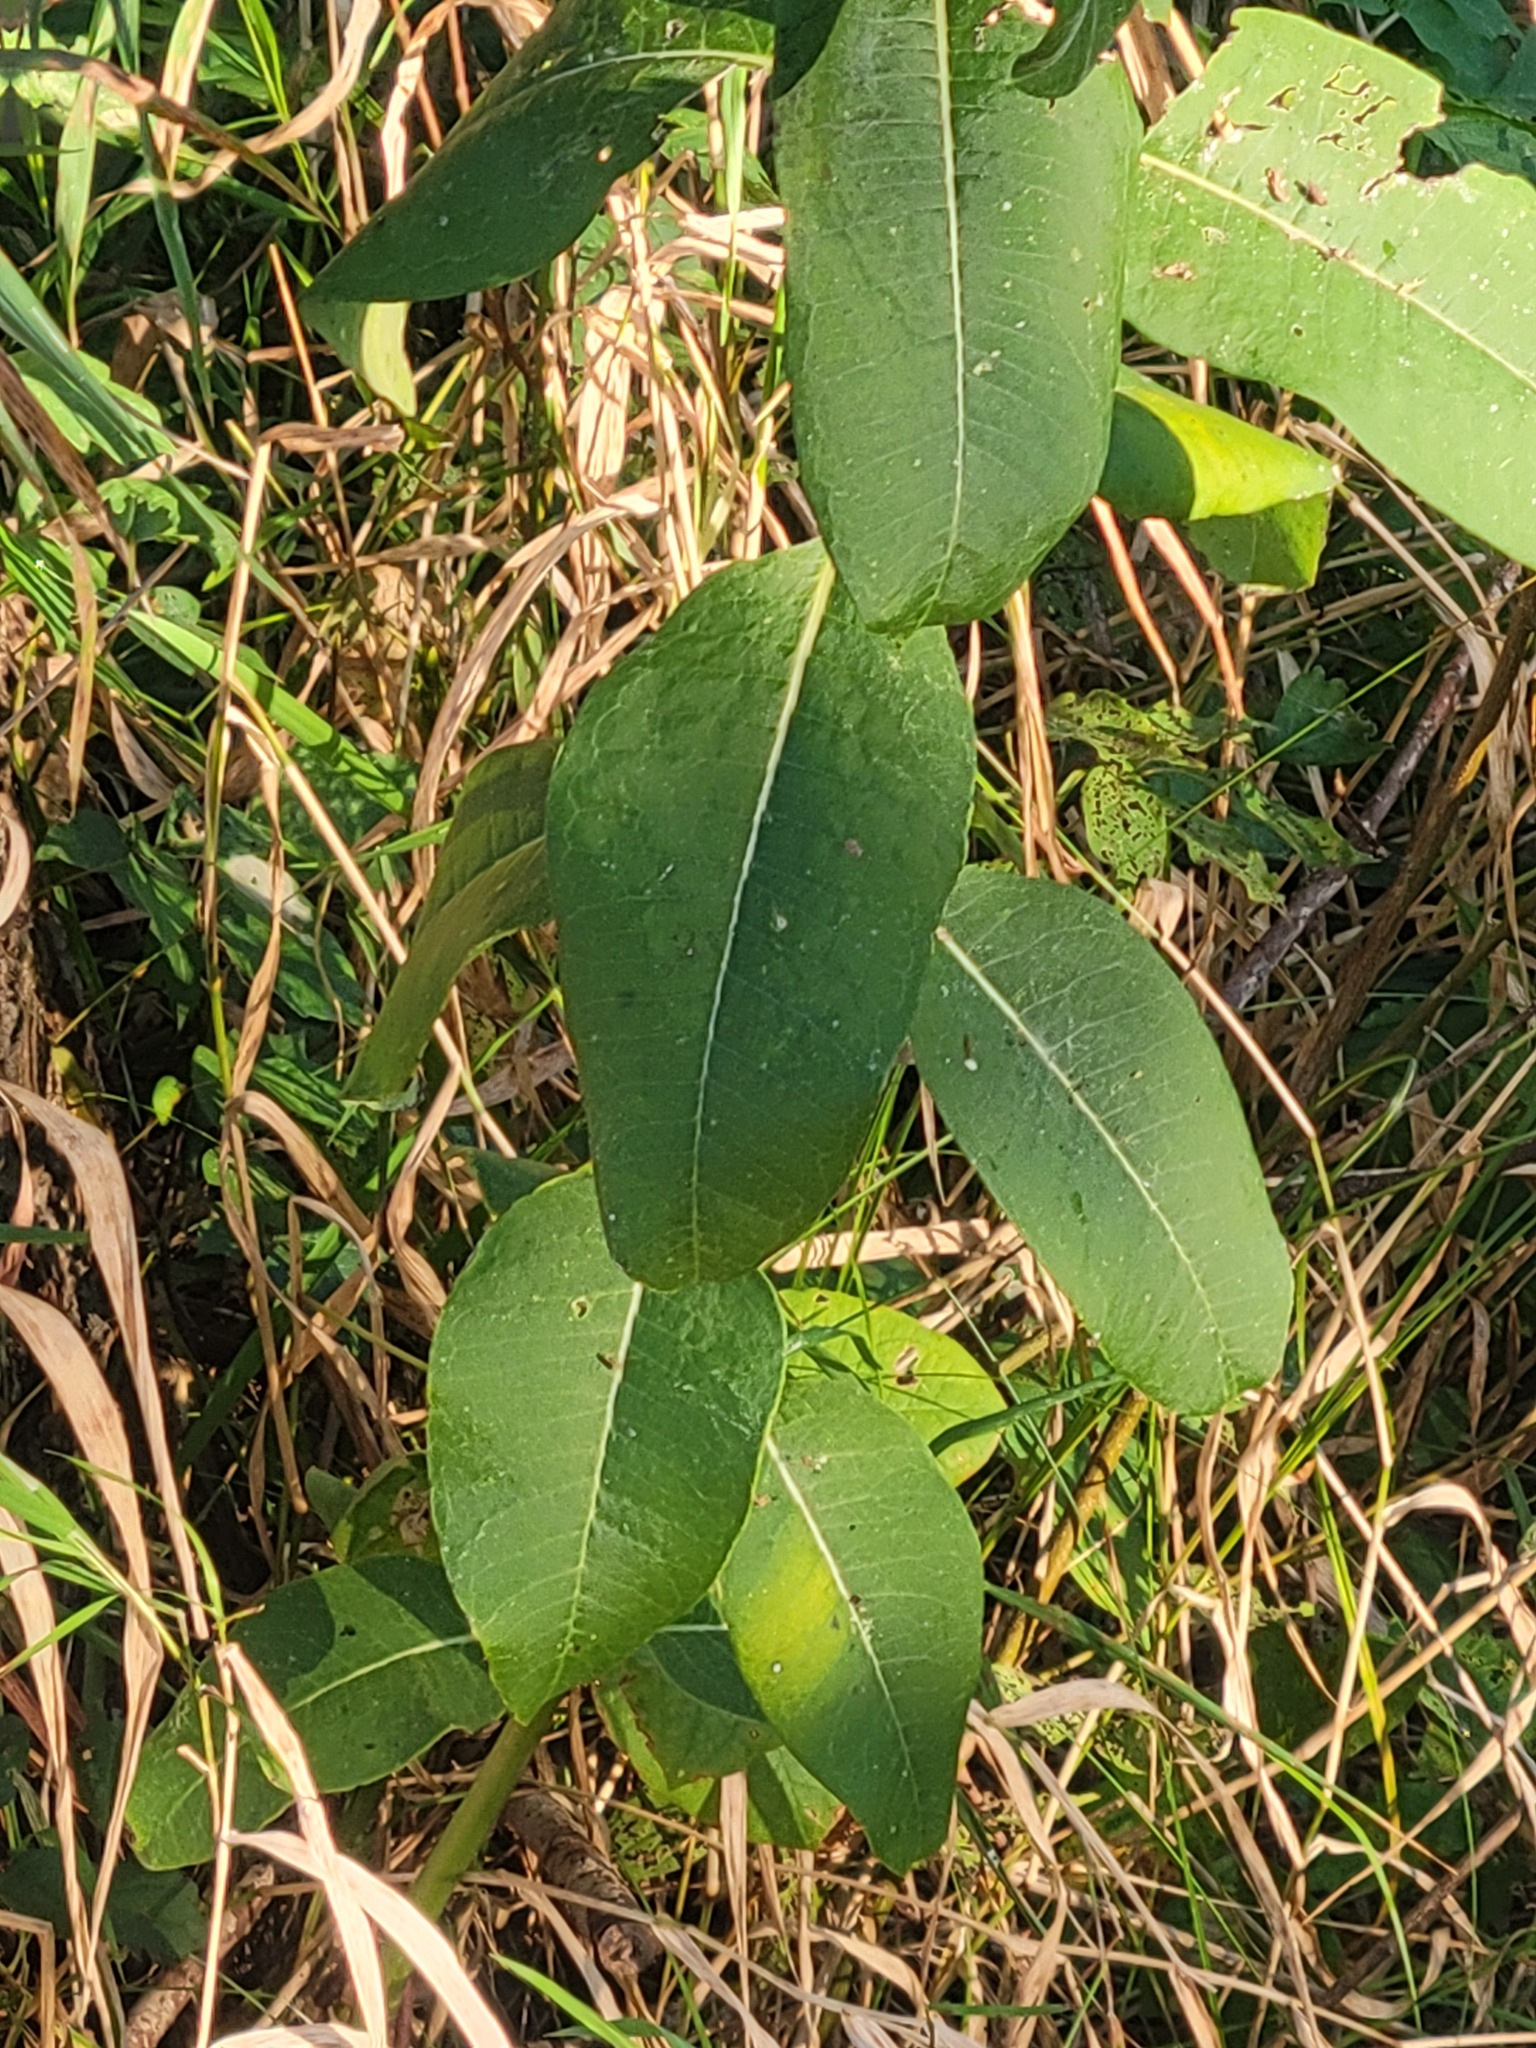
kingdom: Plantae
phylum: Tracheophyta
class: Magnoliopsida
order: Gentianales
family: Apocynaceae
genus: Asclepias
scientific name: Asclepias syriaca
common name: Common milkweed
